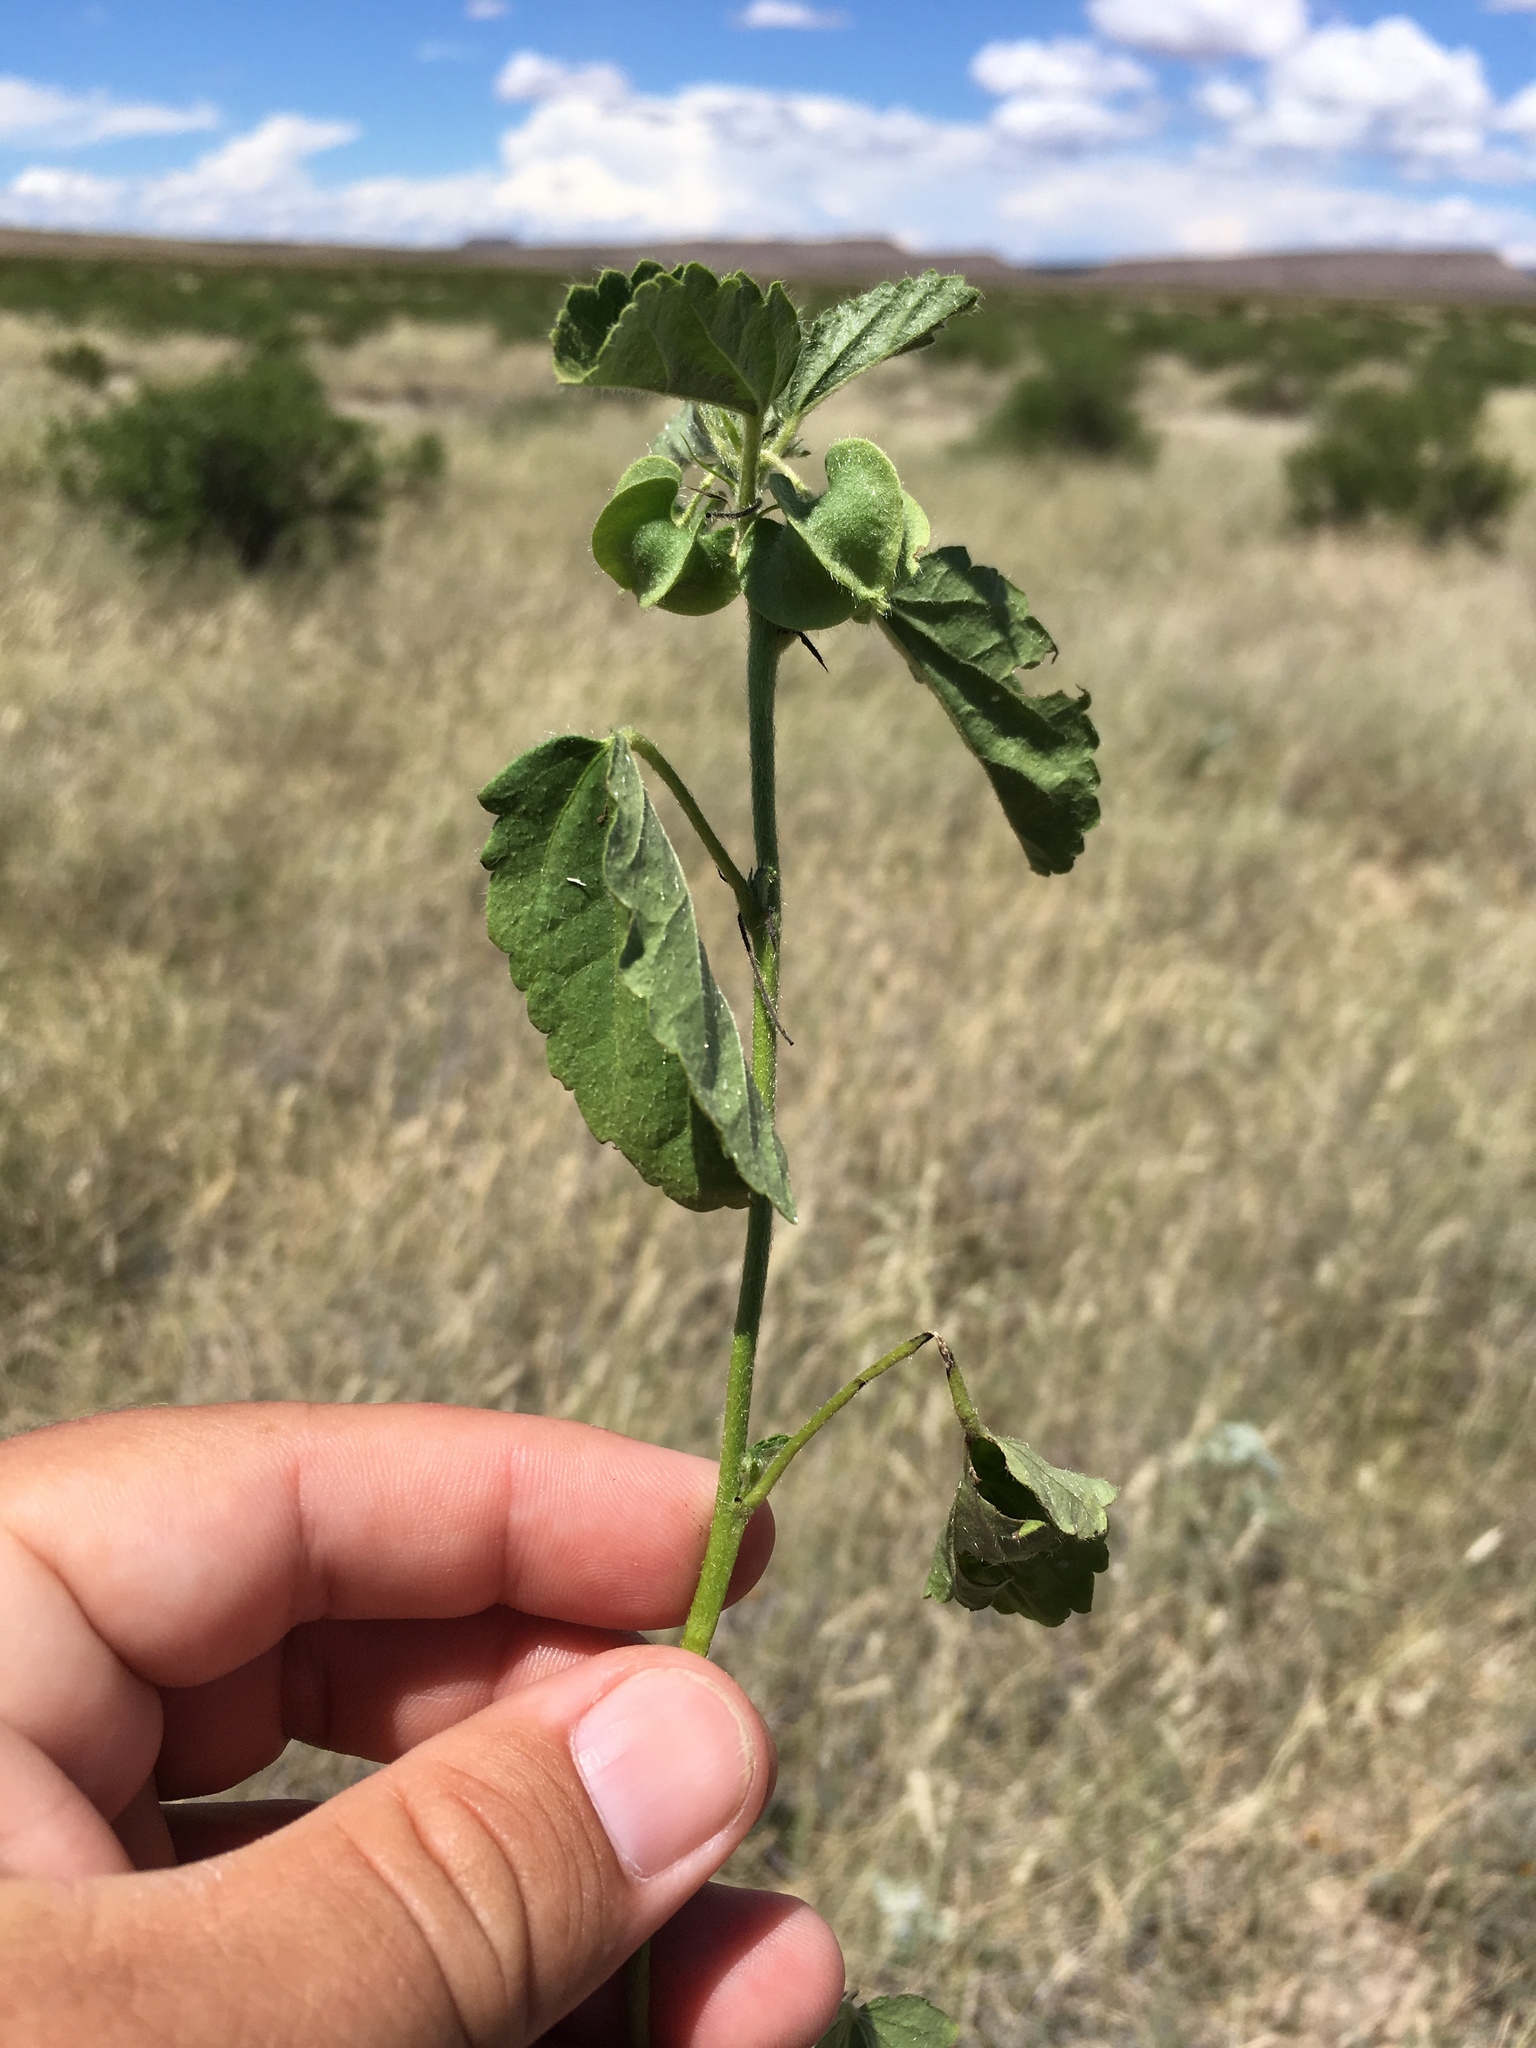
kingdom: Plantae
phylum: Tracheophyta
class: Magnoliopsida
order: Malvales
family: Malvaceae
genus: Rhynchosida
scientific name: Rhynchosida physocalyx
